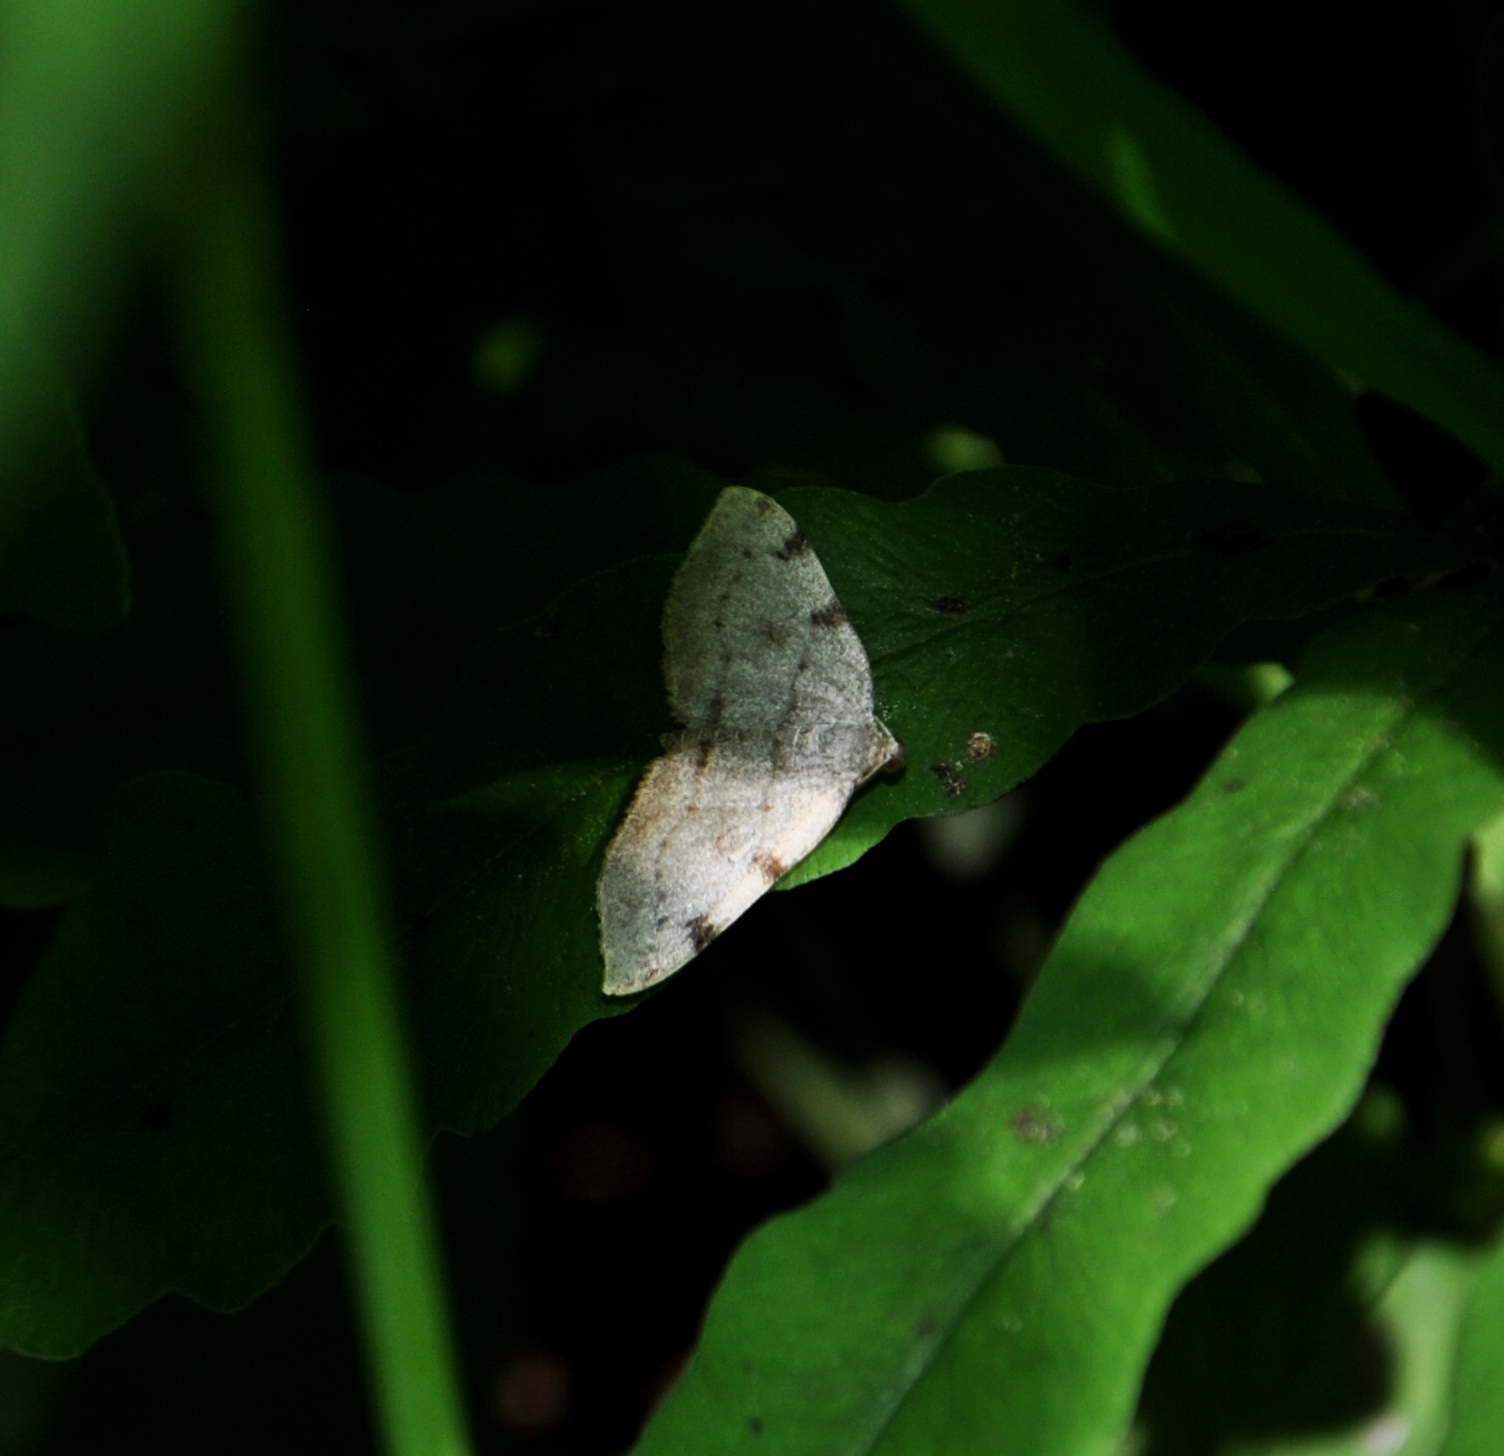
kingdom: Animalia
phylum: Arthropoda
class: Insecta
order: Lepidoptera
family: Geometridae
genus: Heterophleps
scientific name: Heterophleps refusaria
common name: Three-patched bigwing
